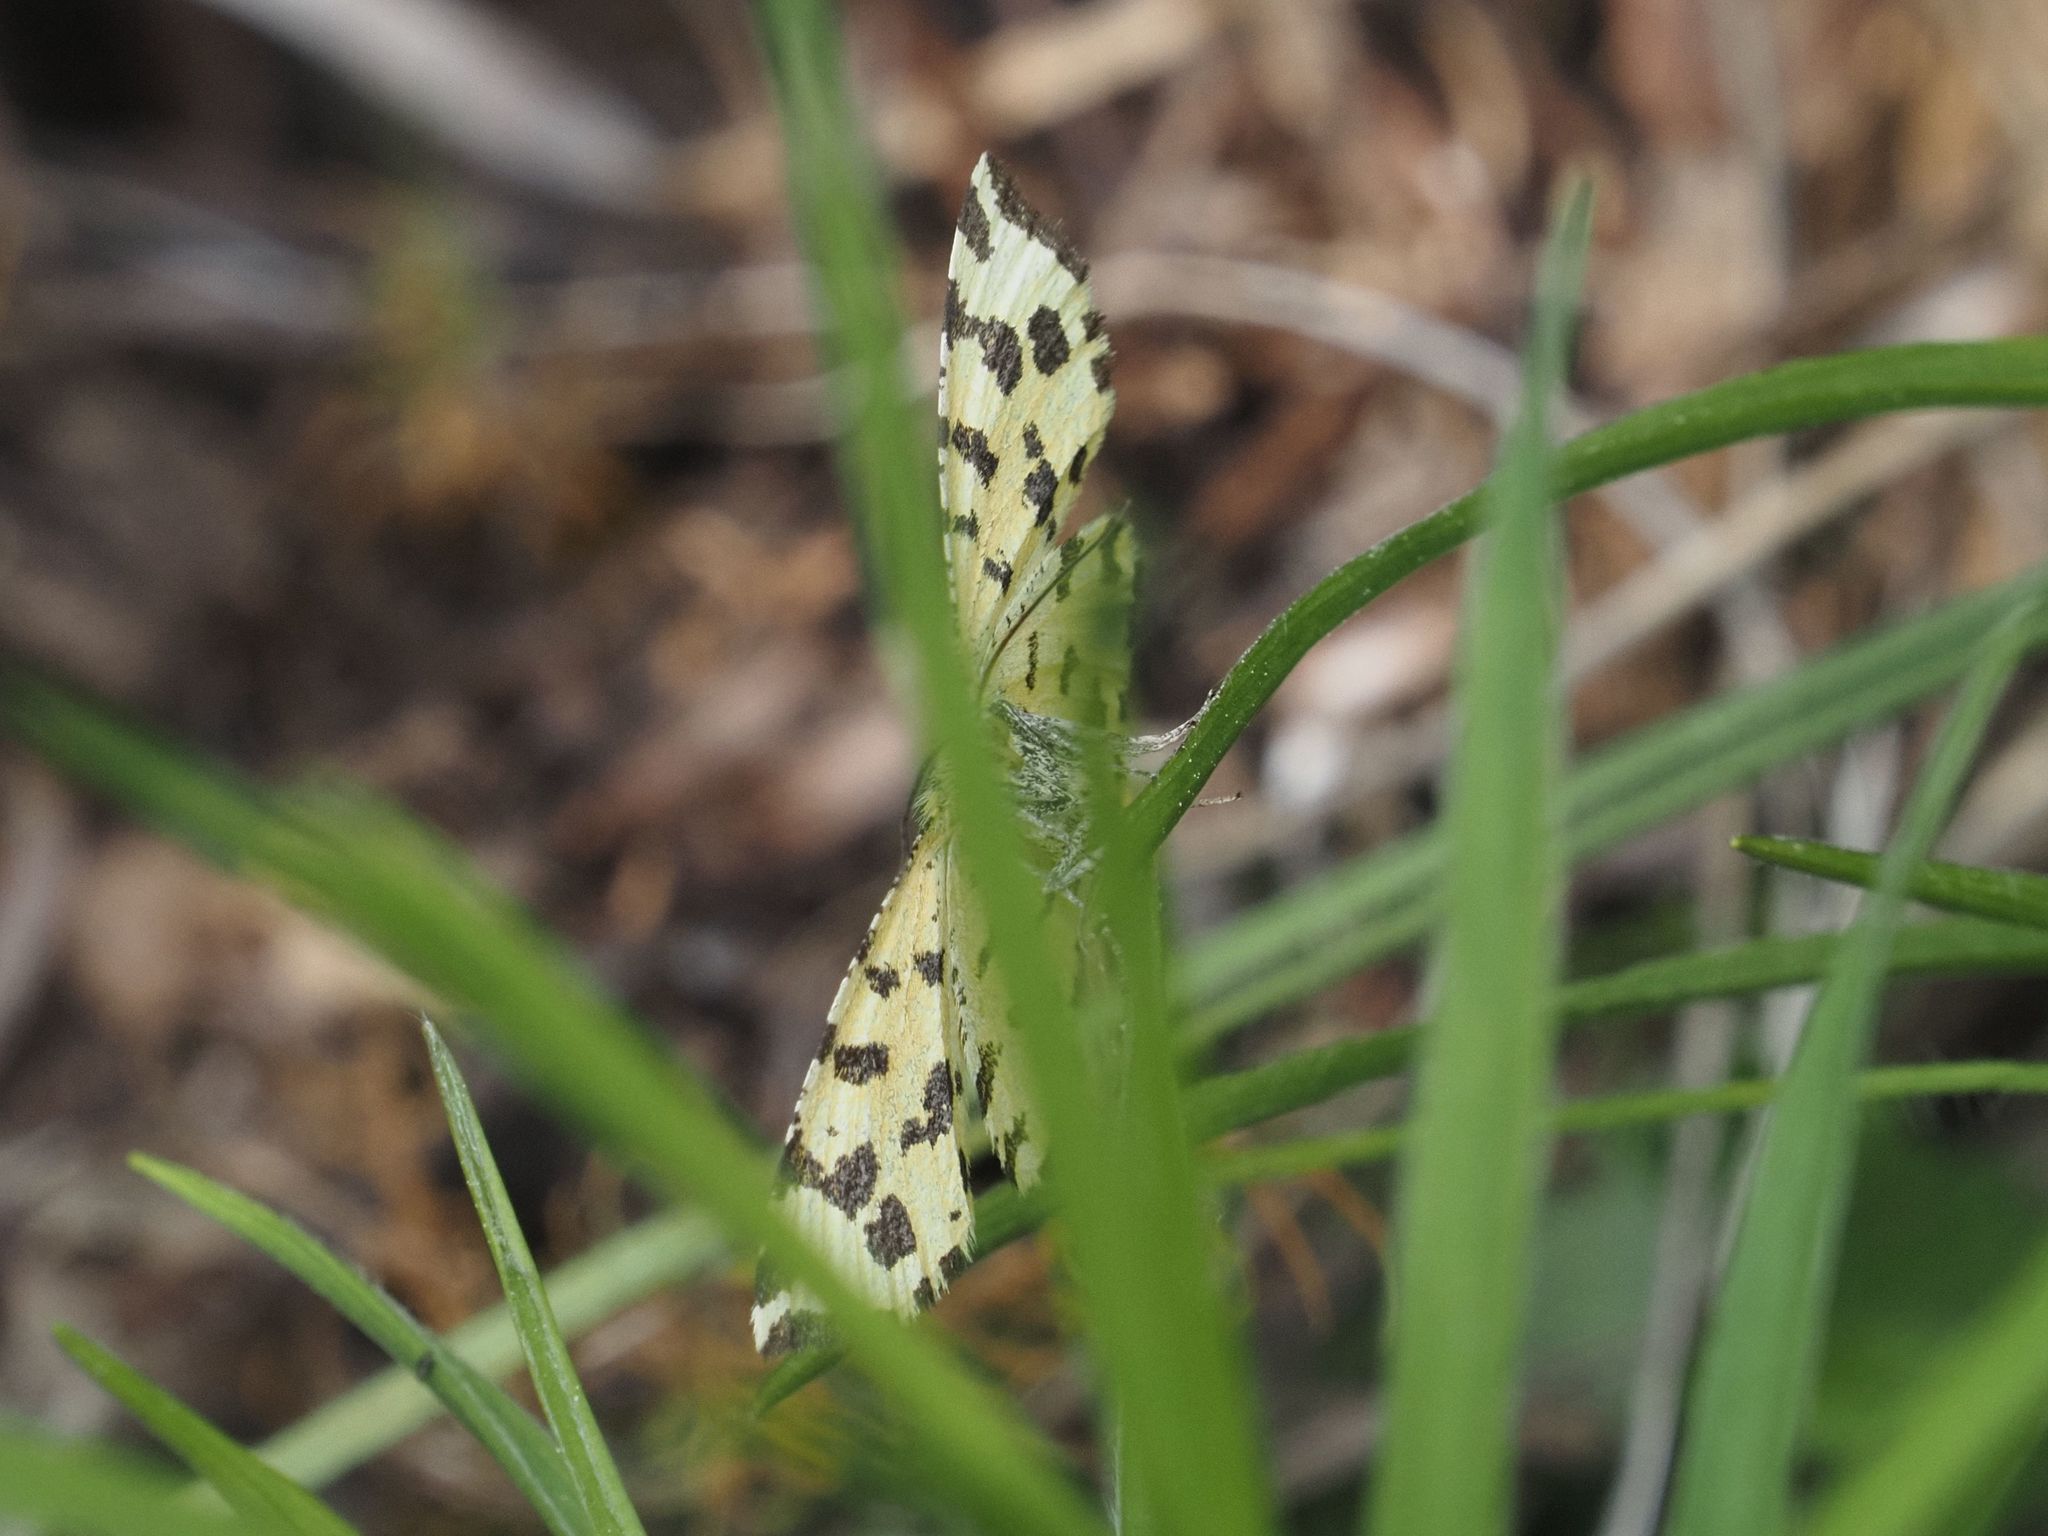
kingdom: Animalia
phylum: Arthropoda
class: Insecta
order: Lepidoptera
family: Geometridae
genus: Pseudopanthera
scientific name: Pseudopanthera macularia
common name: Speckled yellow
